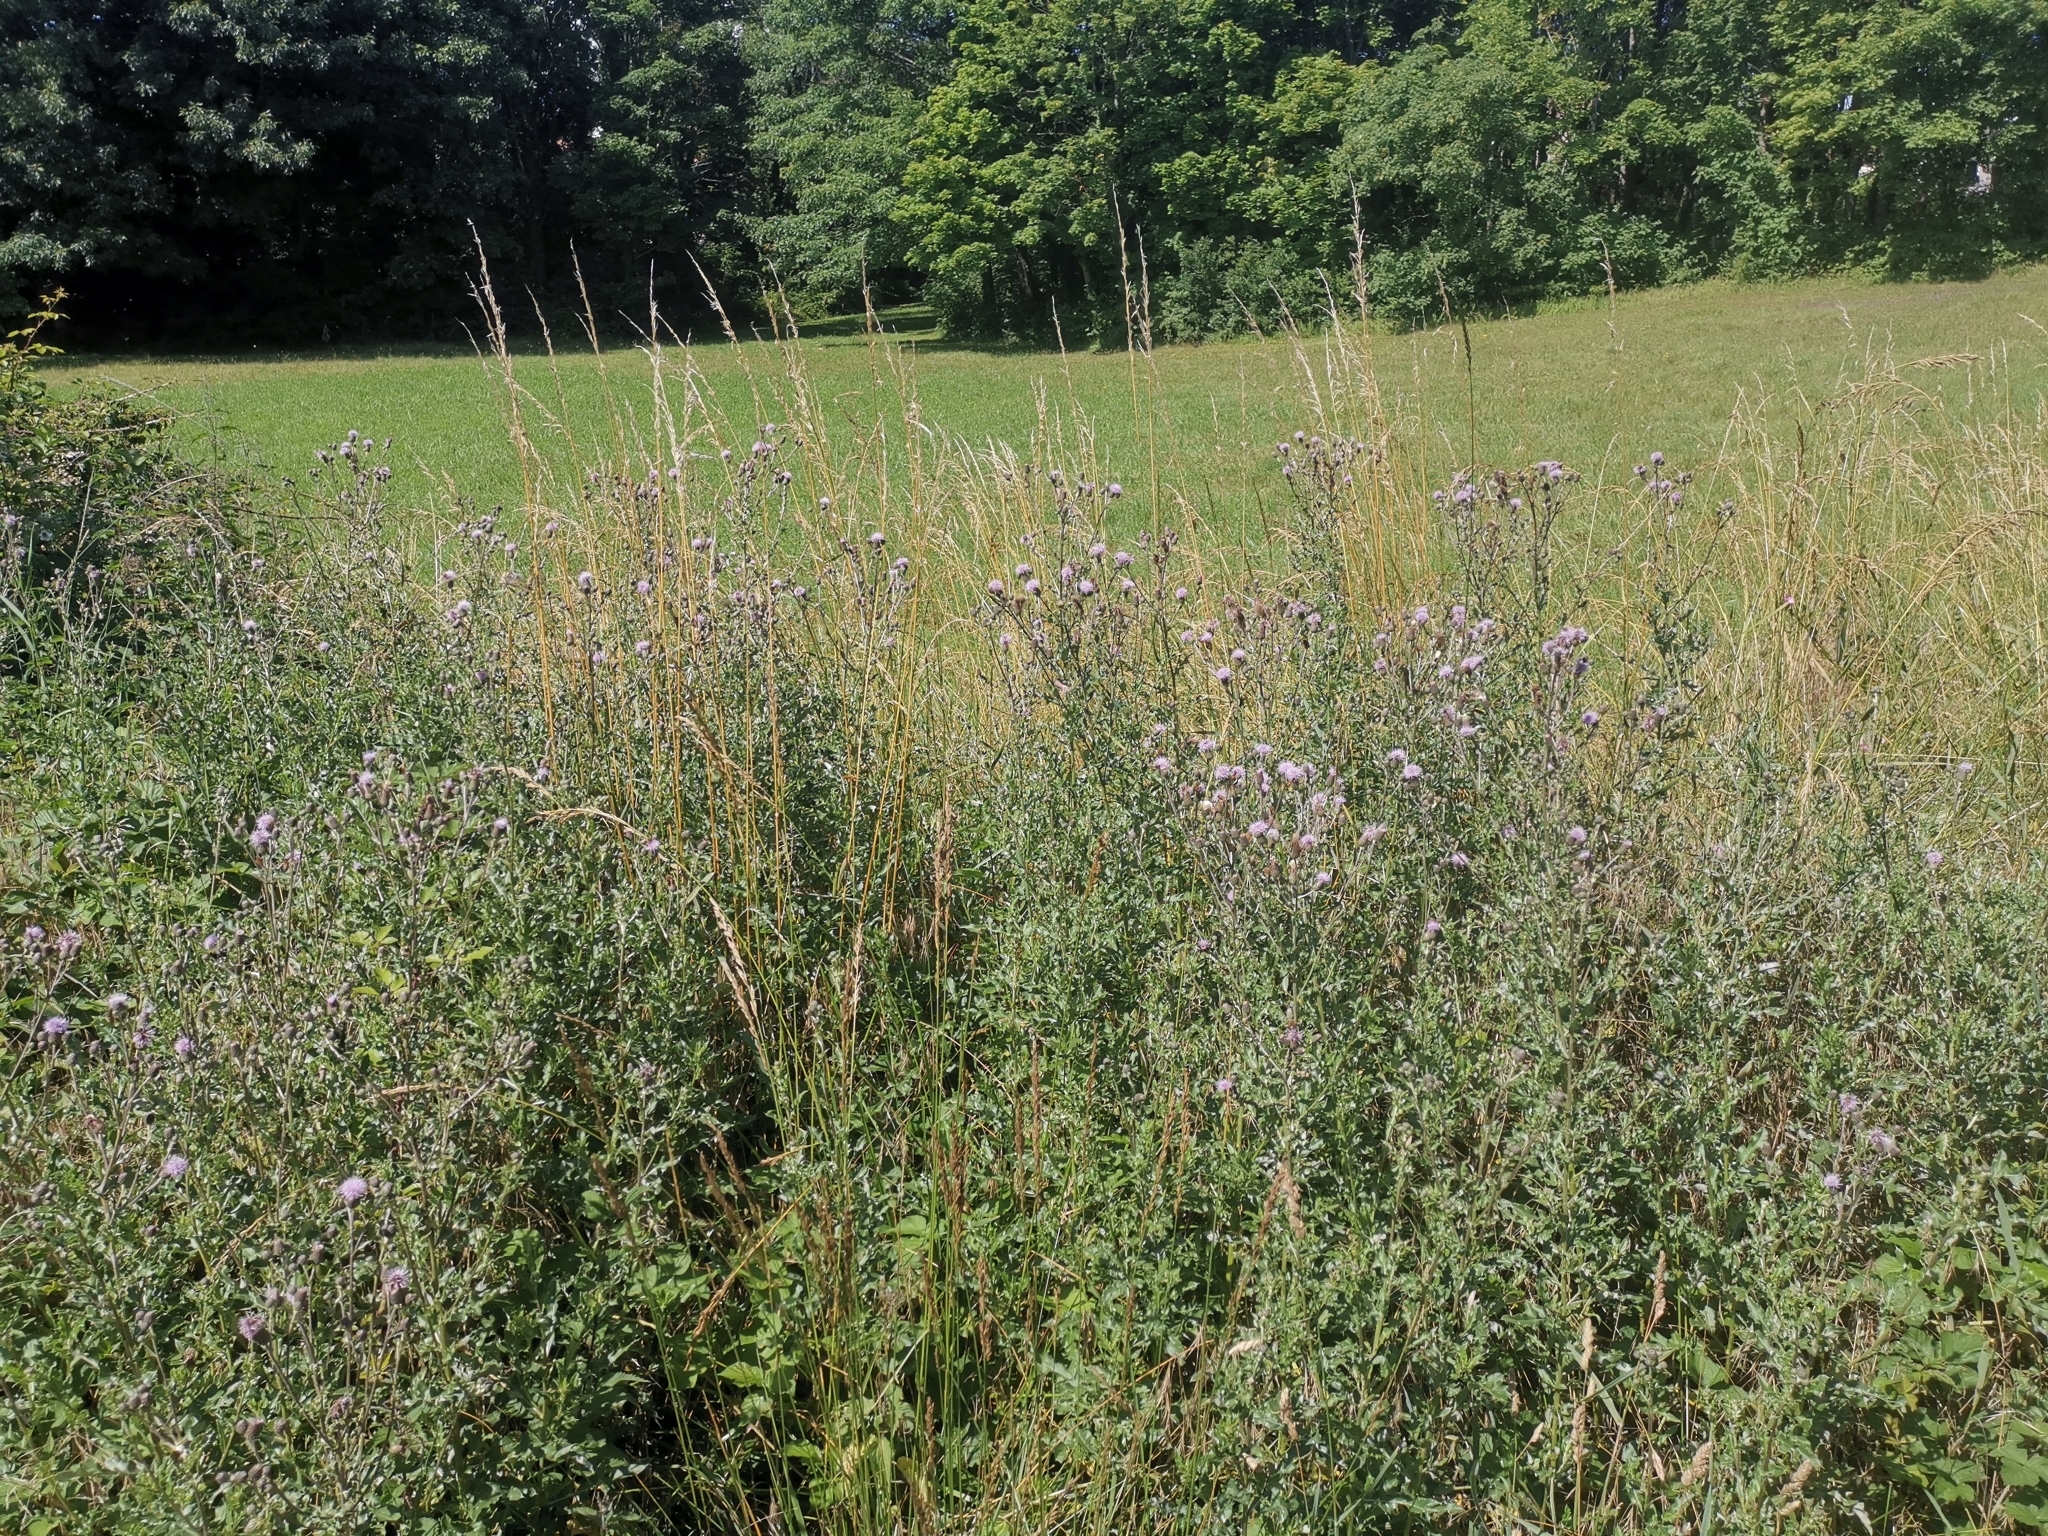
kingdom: Plantae
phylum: Tracheophyta
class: Magnoliopsida
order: Asterales
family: Asteraceae
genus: Cirsium
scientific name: Cirsium arvense
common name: Creeping thistle
